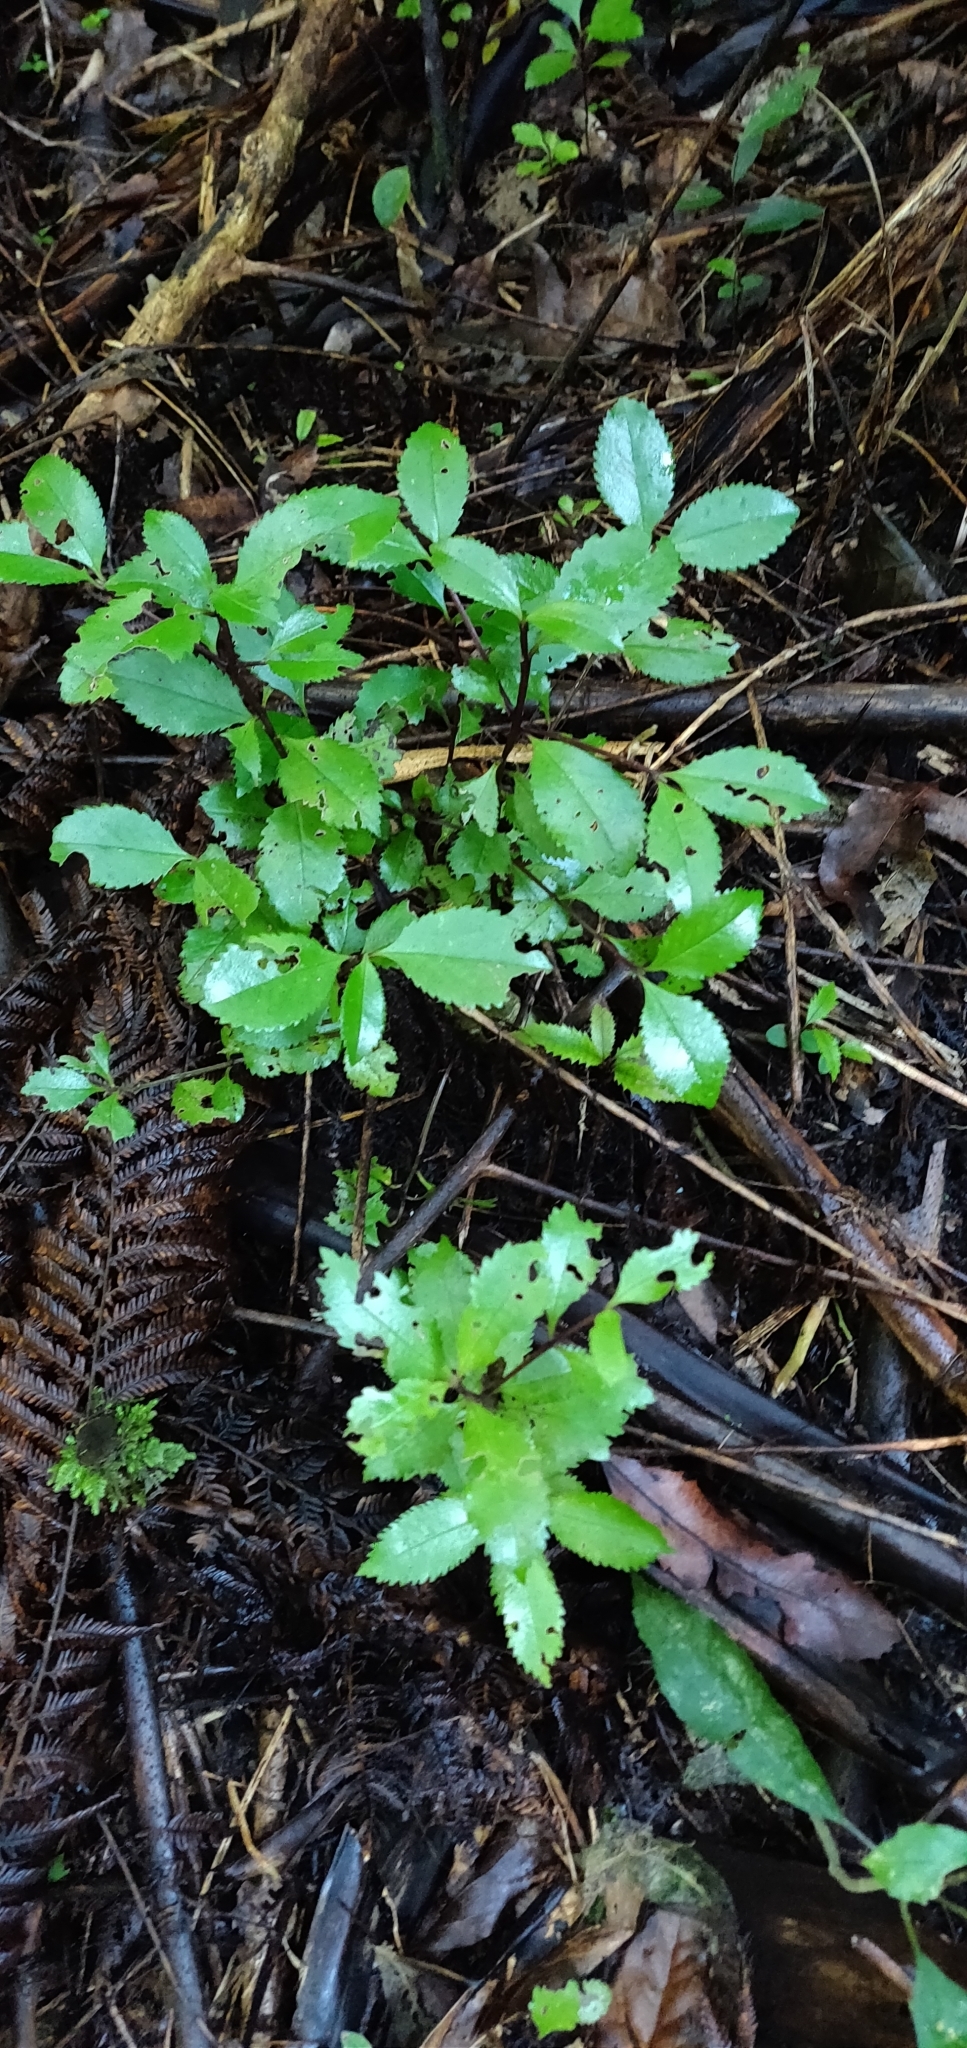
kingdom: Plantae
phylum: Tracheophyta
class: Magnoliopsida
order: Laurales
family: Atherospermataceae
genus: Laurelia
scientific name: Laurelia novae-zelandiae
